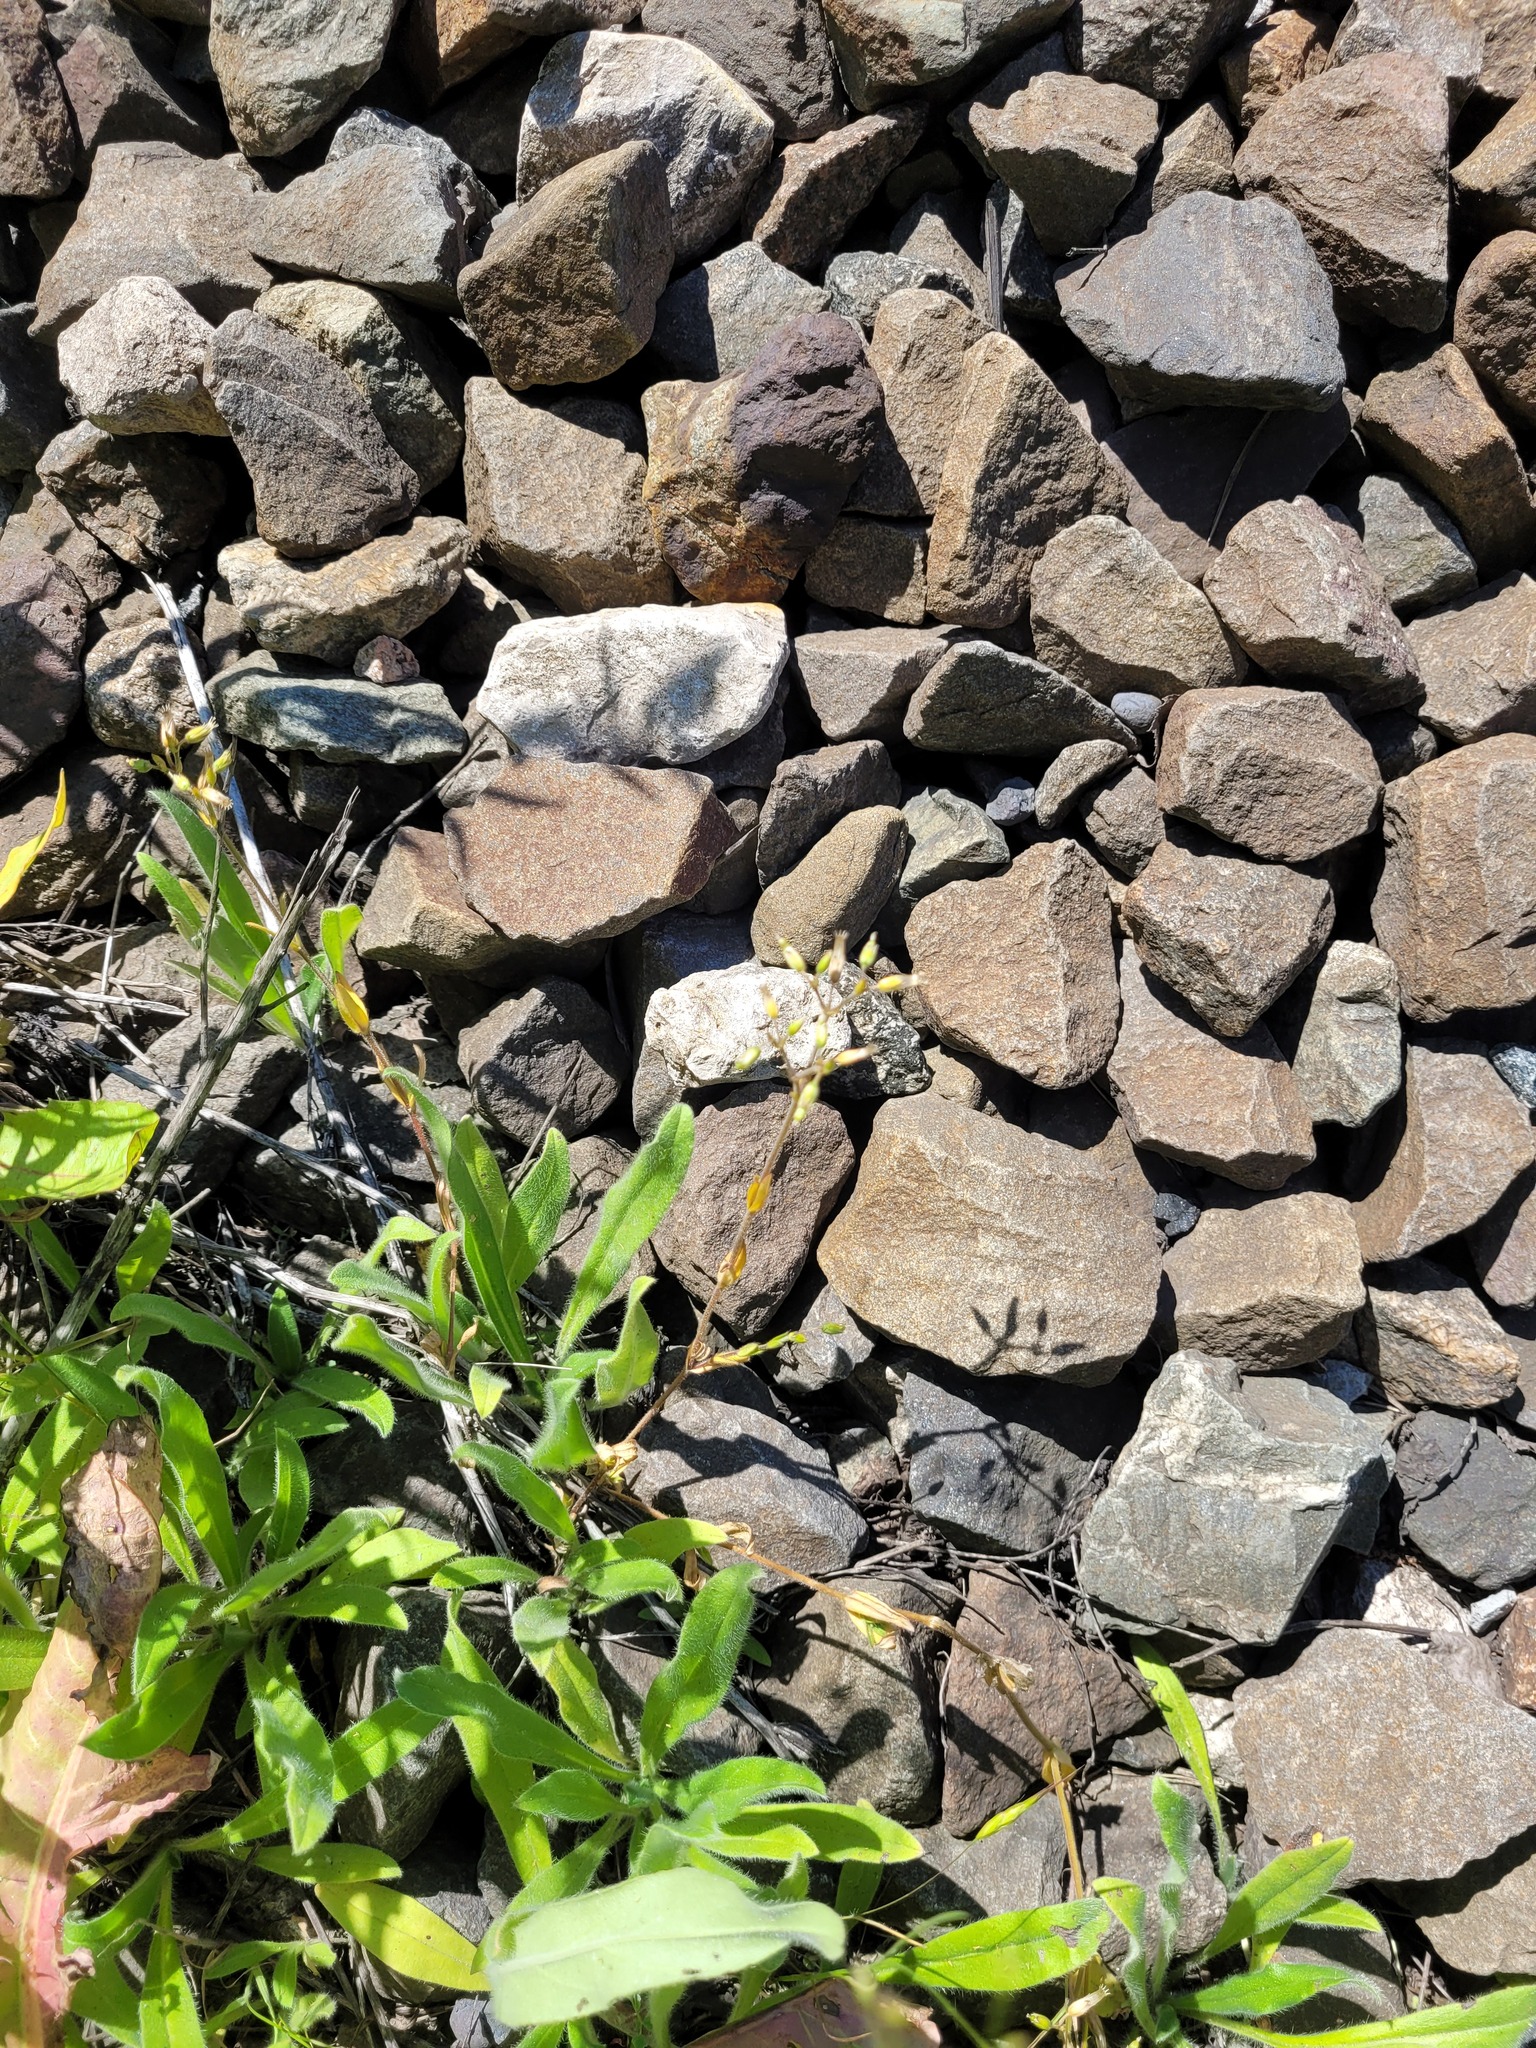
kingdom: Plantae
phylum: Tracheophyta
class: Magnoliopsida
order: Caryophyllales
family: Caryophyllaceae
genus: Cerastium
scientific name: Cerastium holosteoides
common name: Big chickweed
